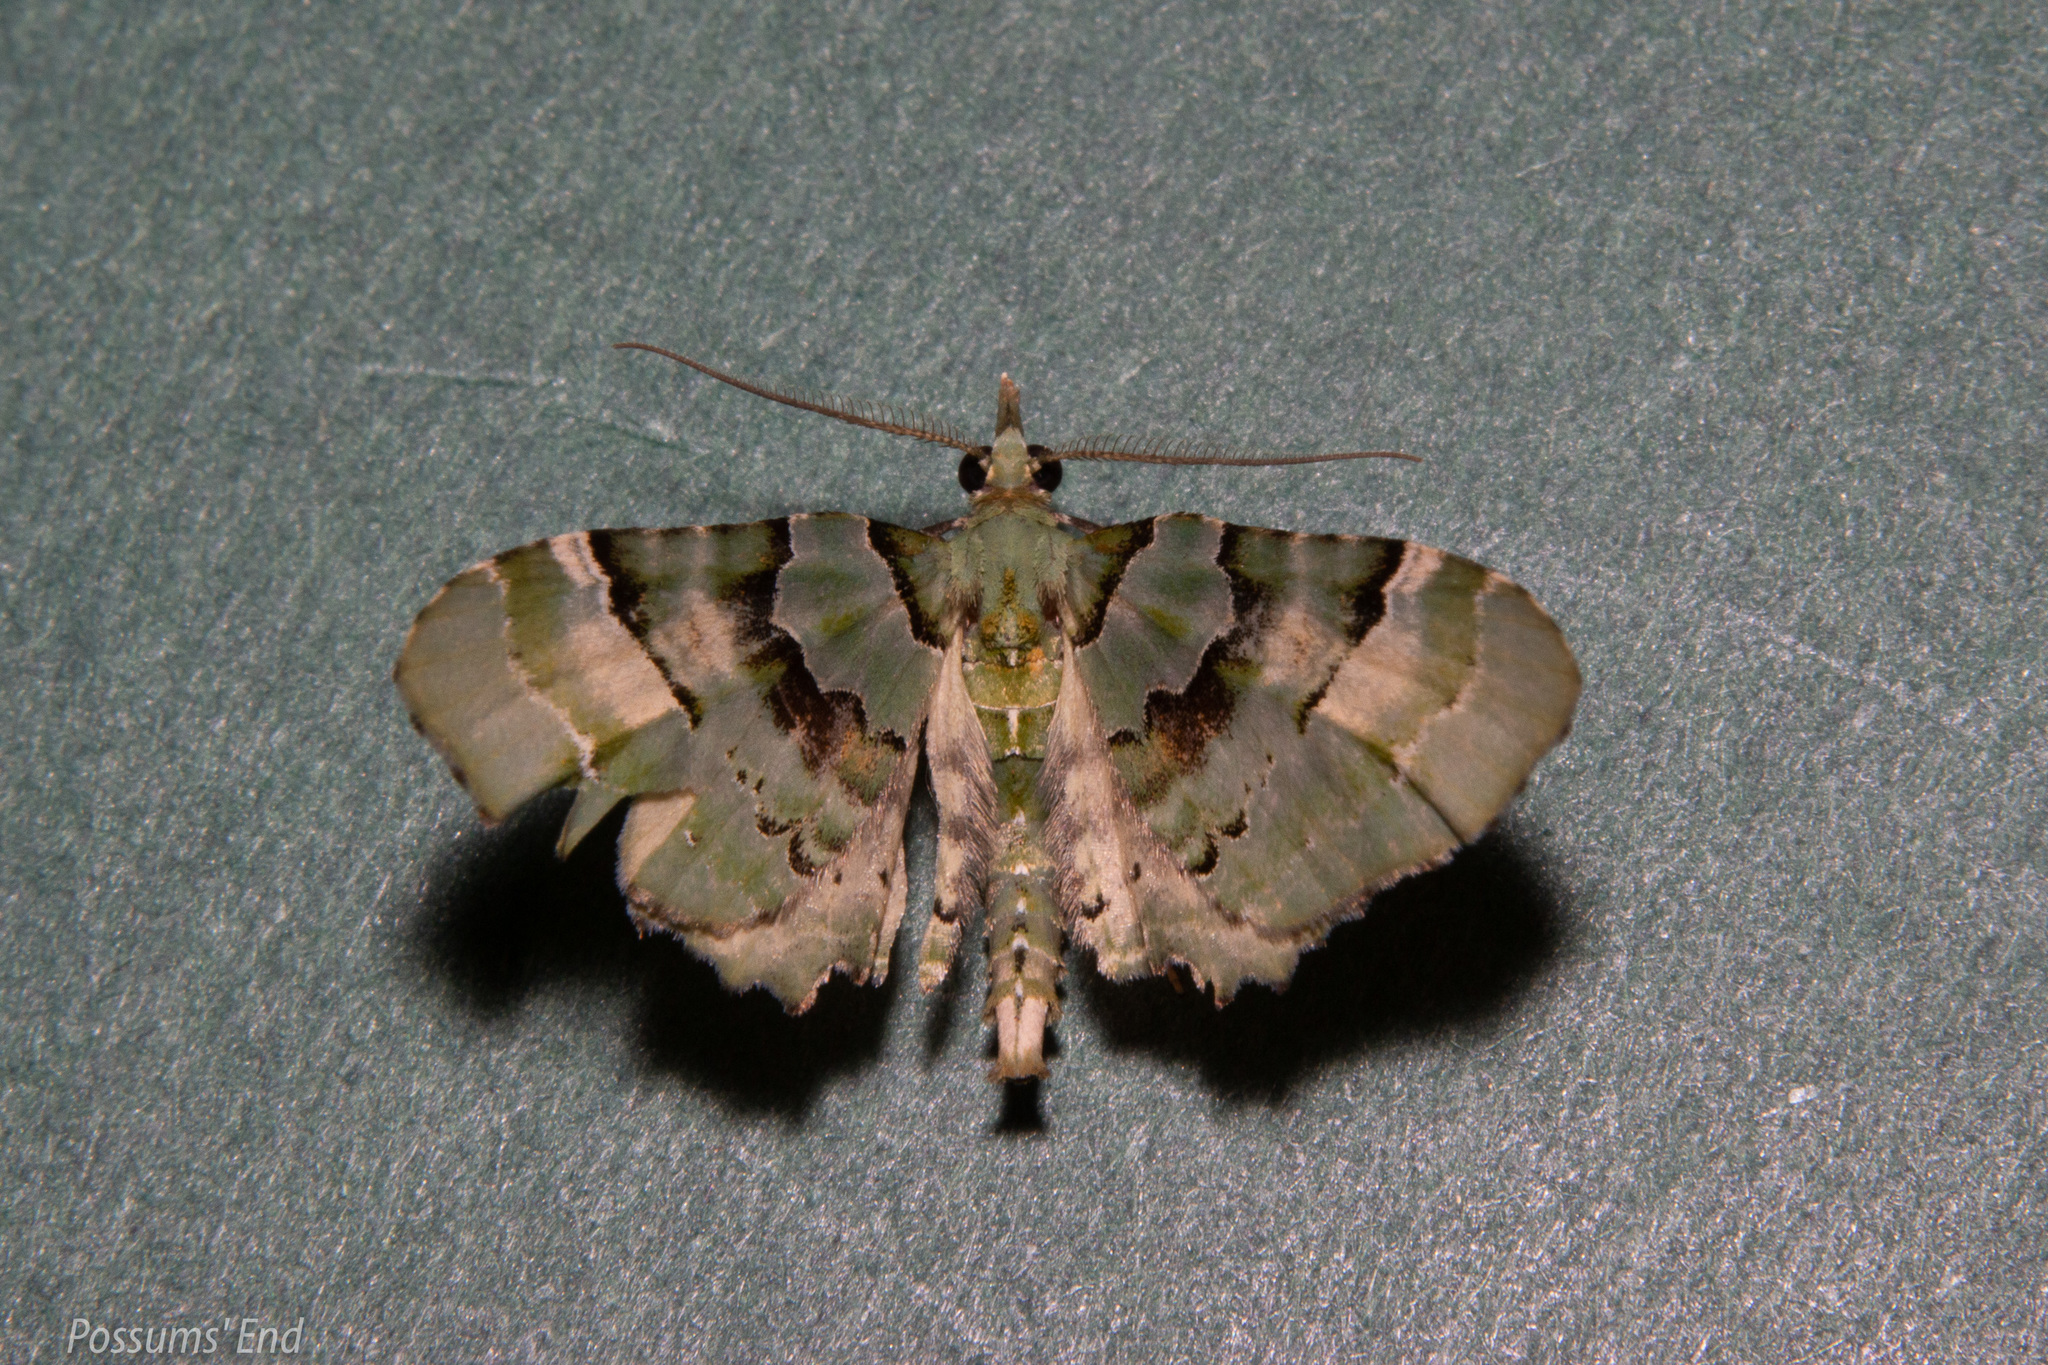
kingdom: Animalia
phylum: Arthropoda
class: Insecta
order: Lepidoptera
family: Geometridae
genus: Elvia
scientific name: Elvia glaucata
